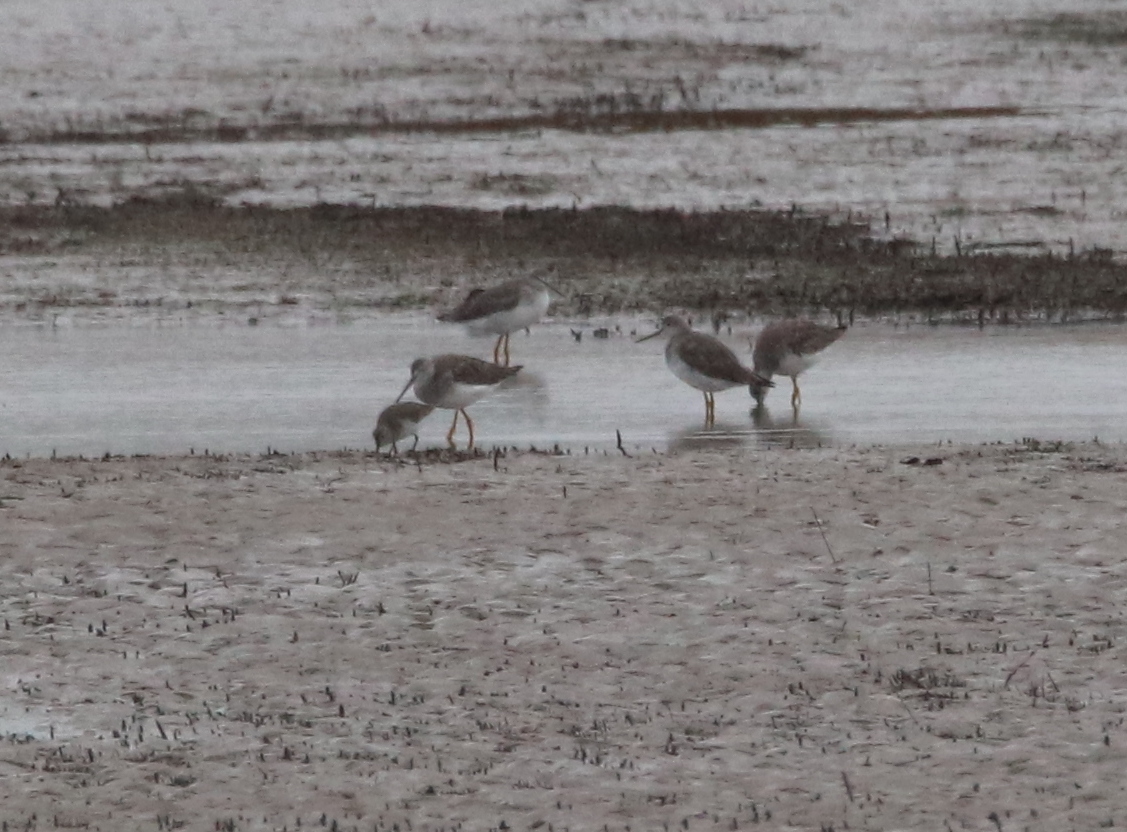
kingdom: Animalia
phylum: Chordata
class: Aves
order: Charadriiformes
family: Scolopacidae
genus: Tringa
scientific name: Tringa melanoleuca
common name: Greater yellowlegs
